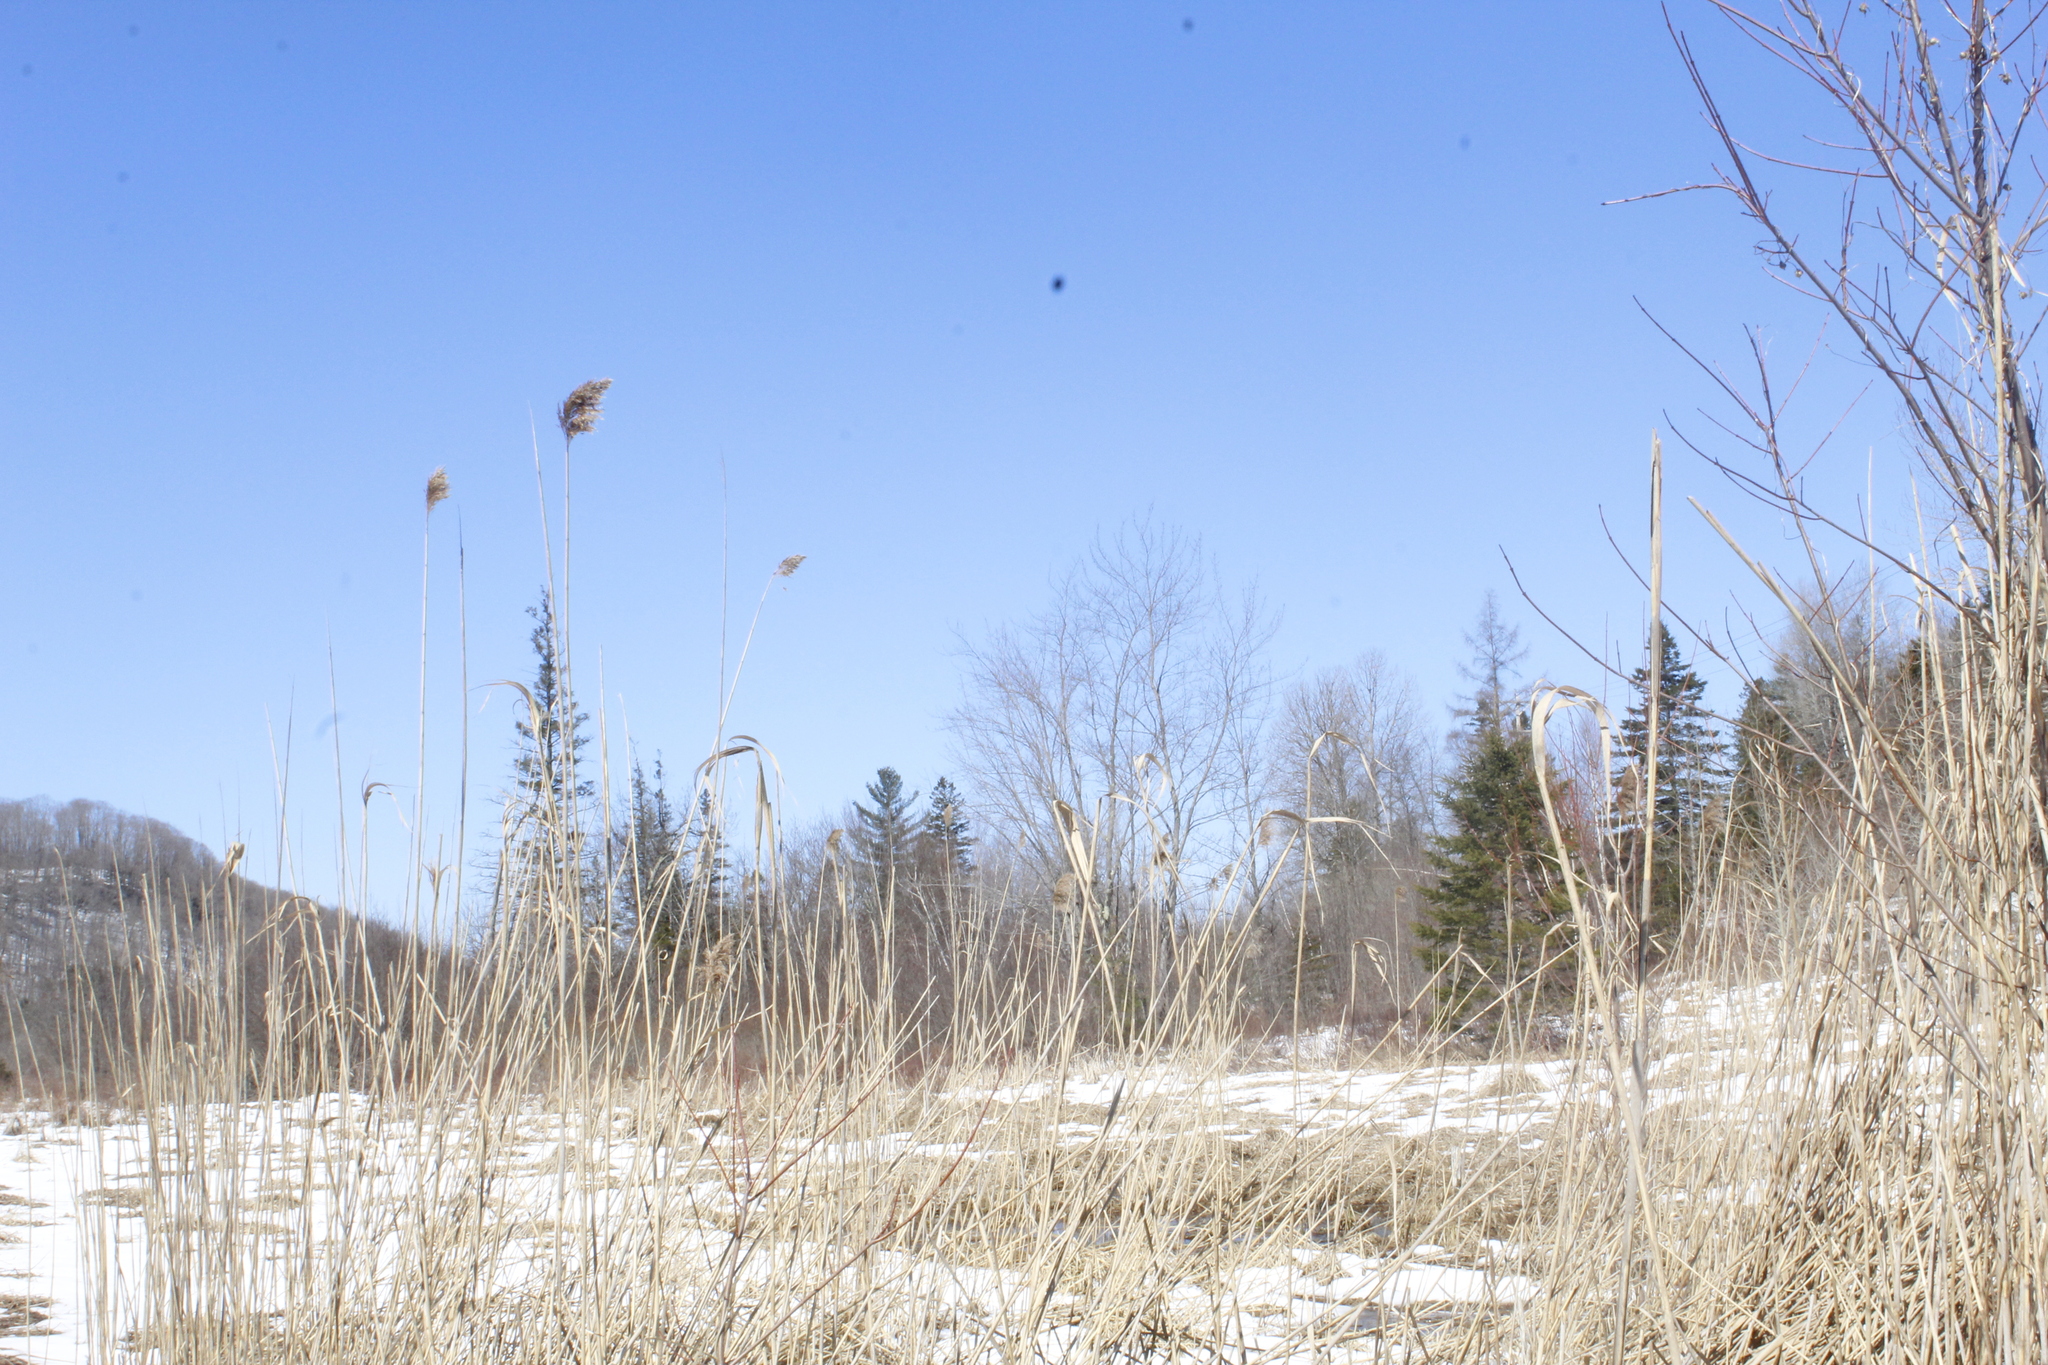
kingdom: Plantae
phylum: Tracheophyta
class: Liliopsida
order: Poales
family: Poaceae
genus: Phragmites
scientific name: Phragmites australis
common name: Common reed
